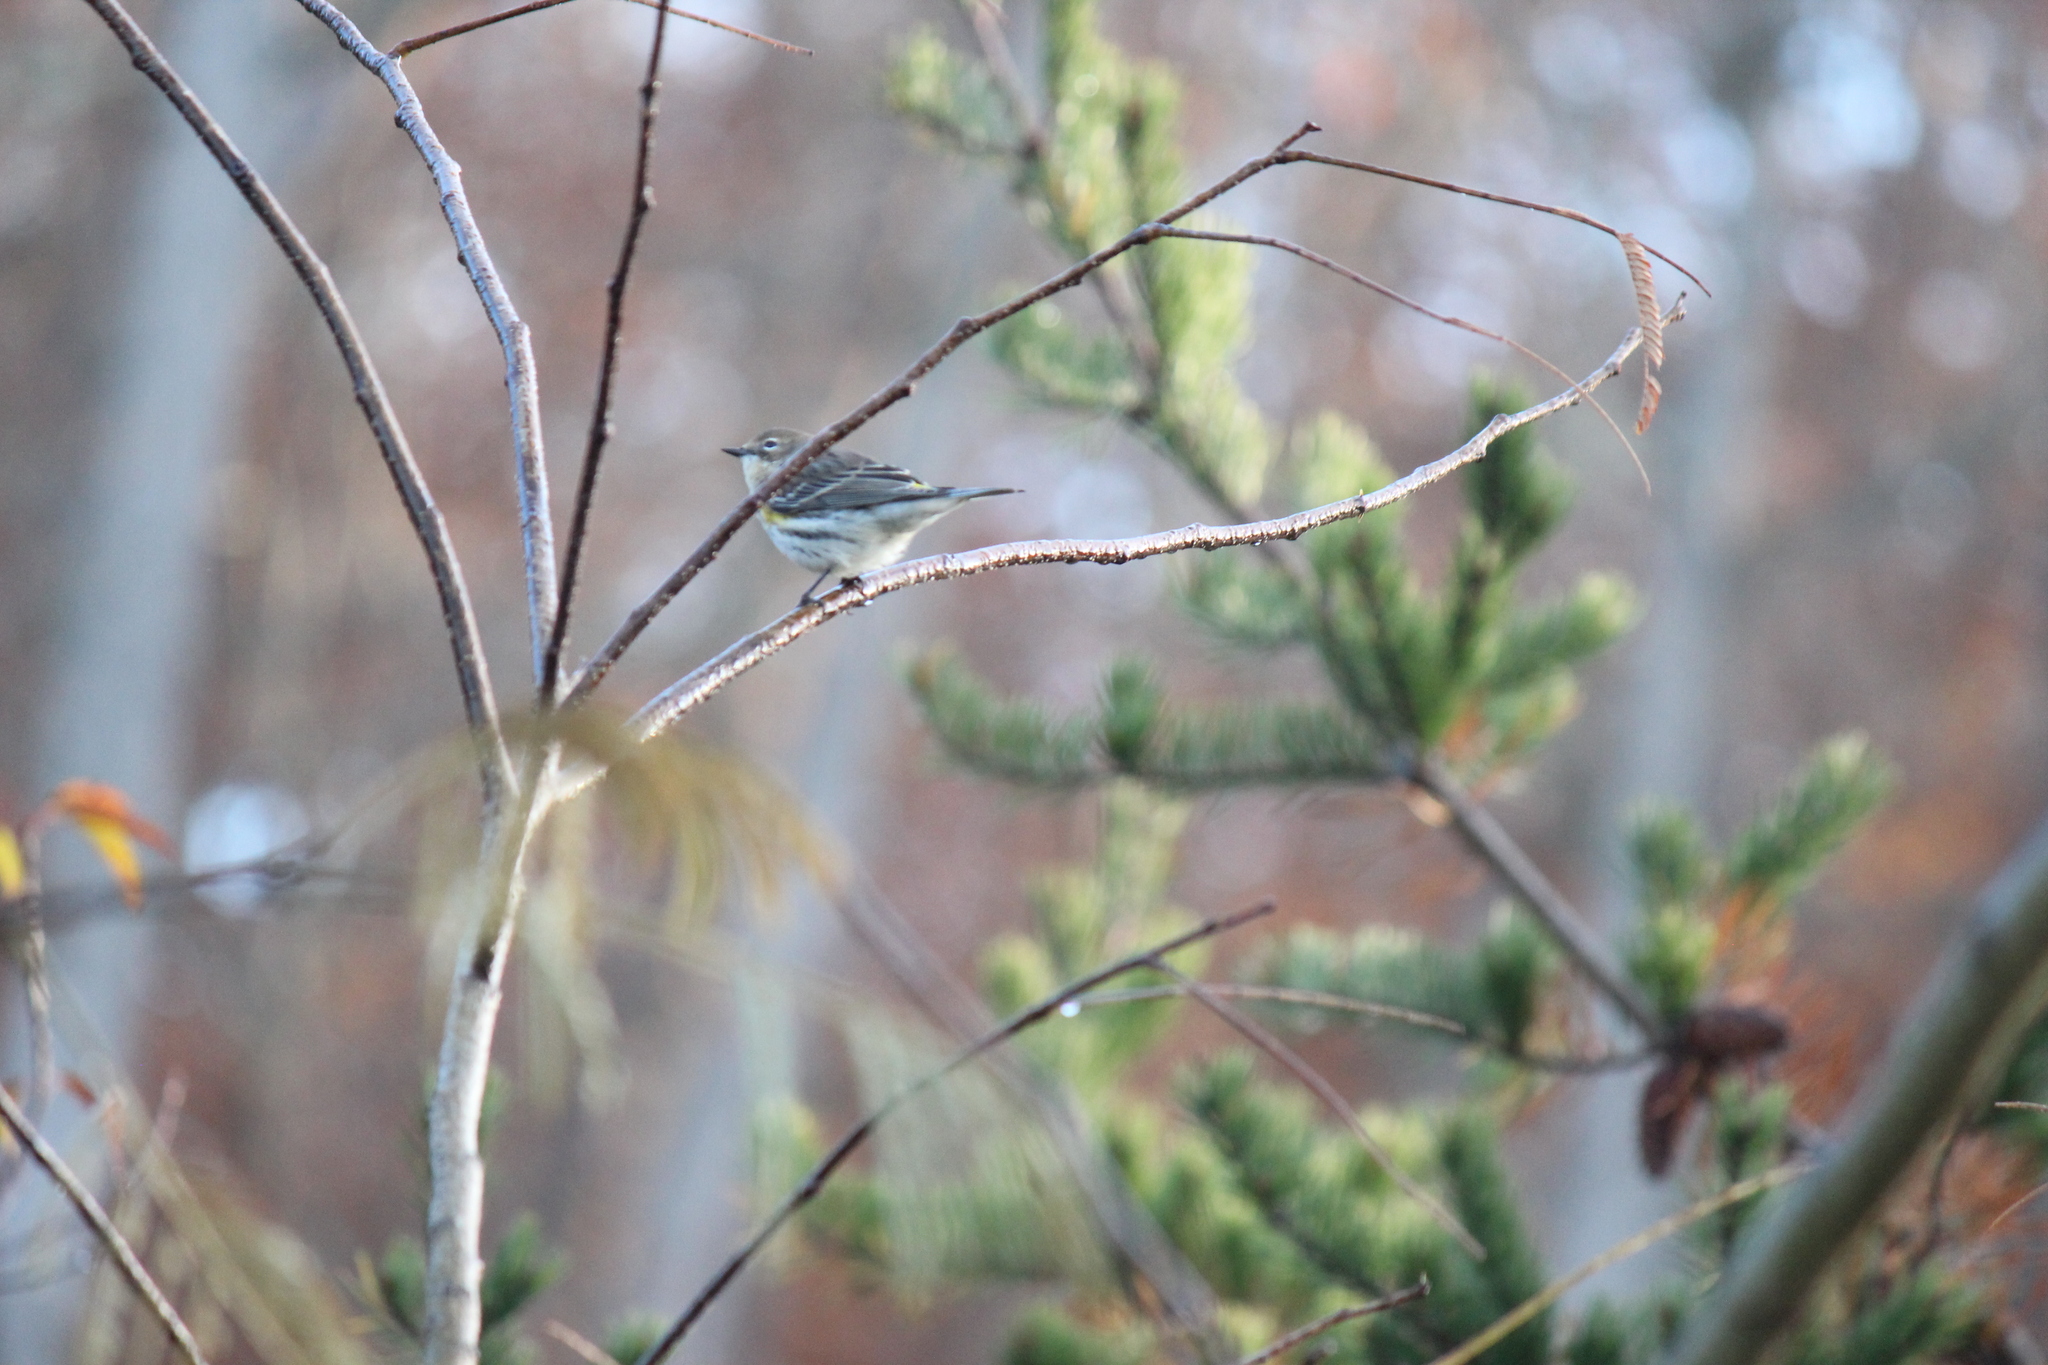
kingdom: Animalia
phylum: Chordata
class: Aves
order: Passeriformes
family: Parulidae
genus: Setophaga
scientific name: Setophaga coronata
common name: Myrtle warbler
